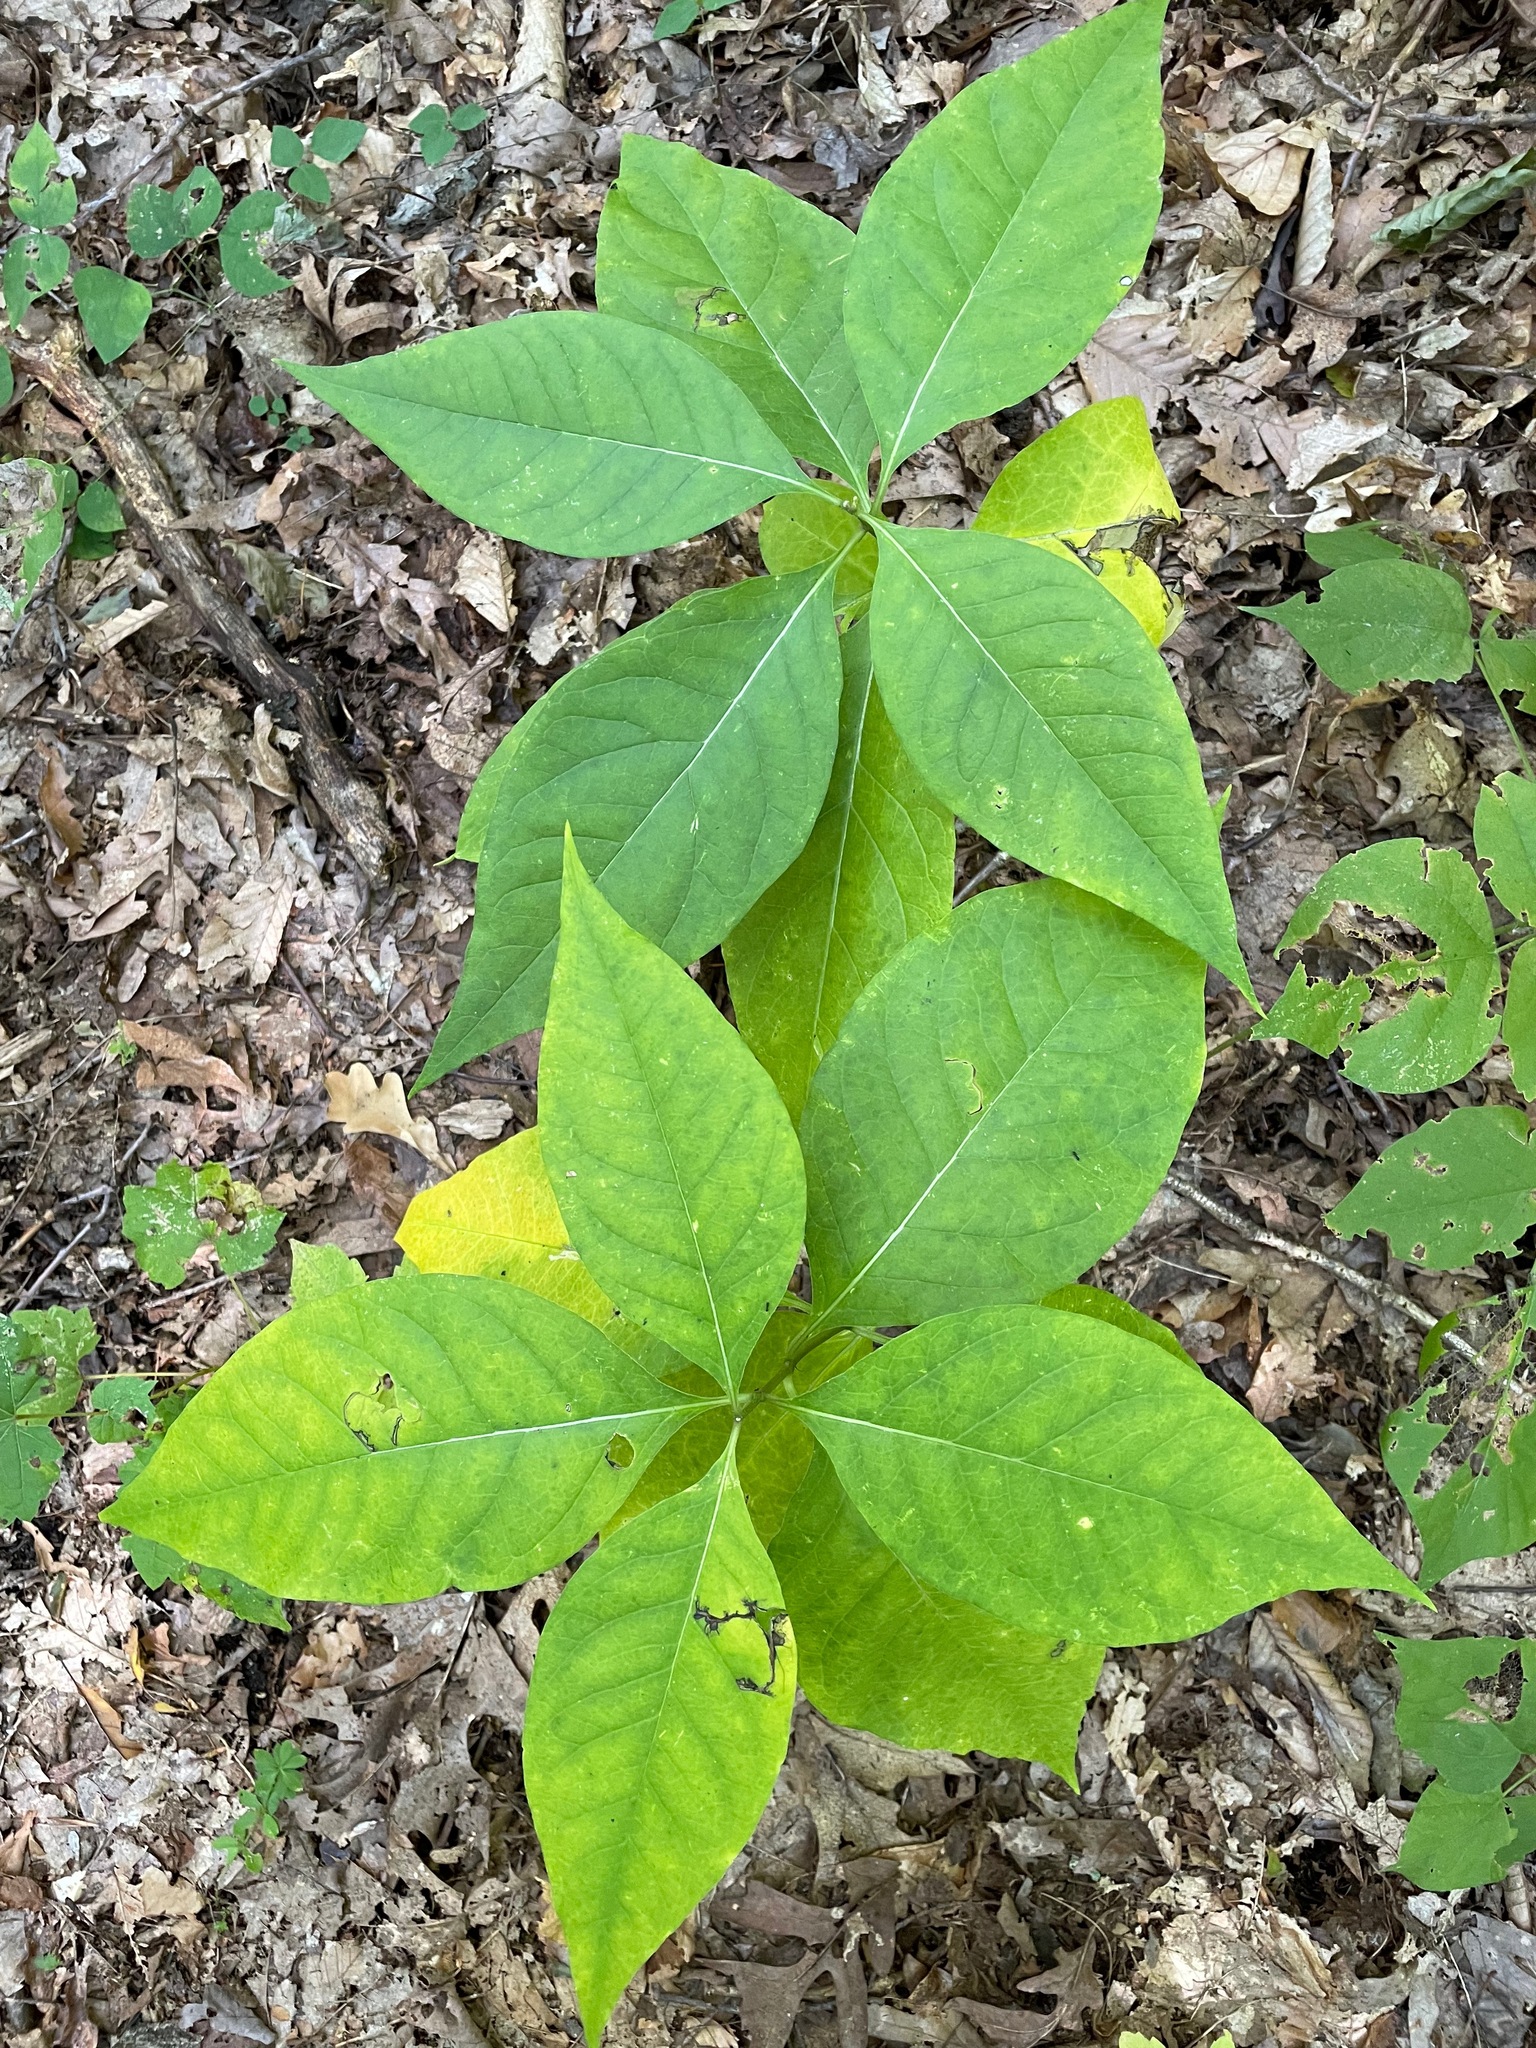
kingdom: Plantae
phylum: Tracheophyta
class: Magnoliopsida
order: Gentianales
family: Apocynaceae
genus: Asclepias
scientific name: Asclepias exaltata
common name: Poke milkweed
